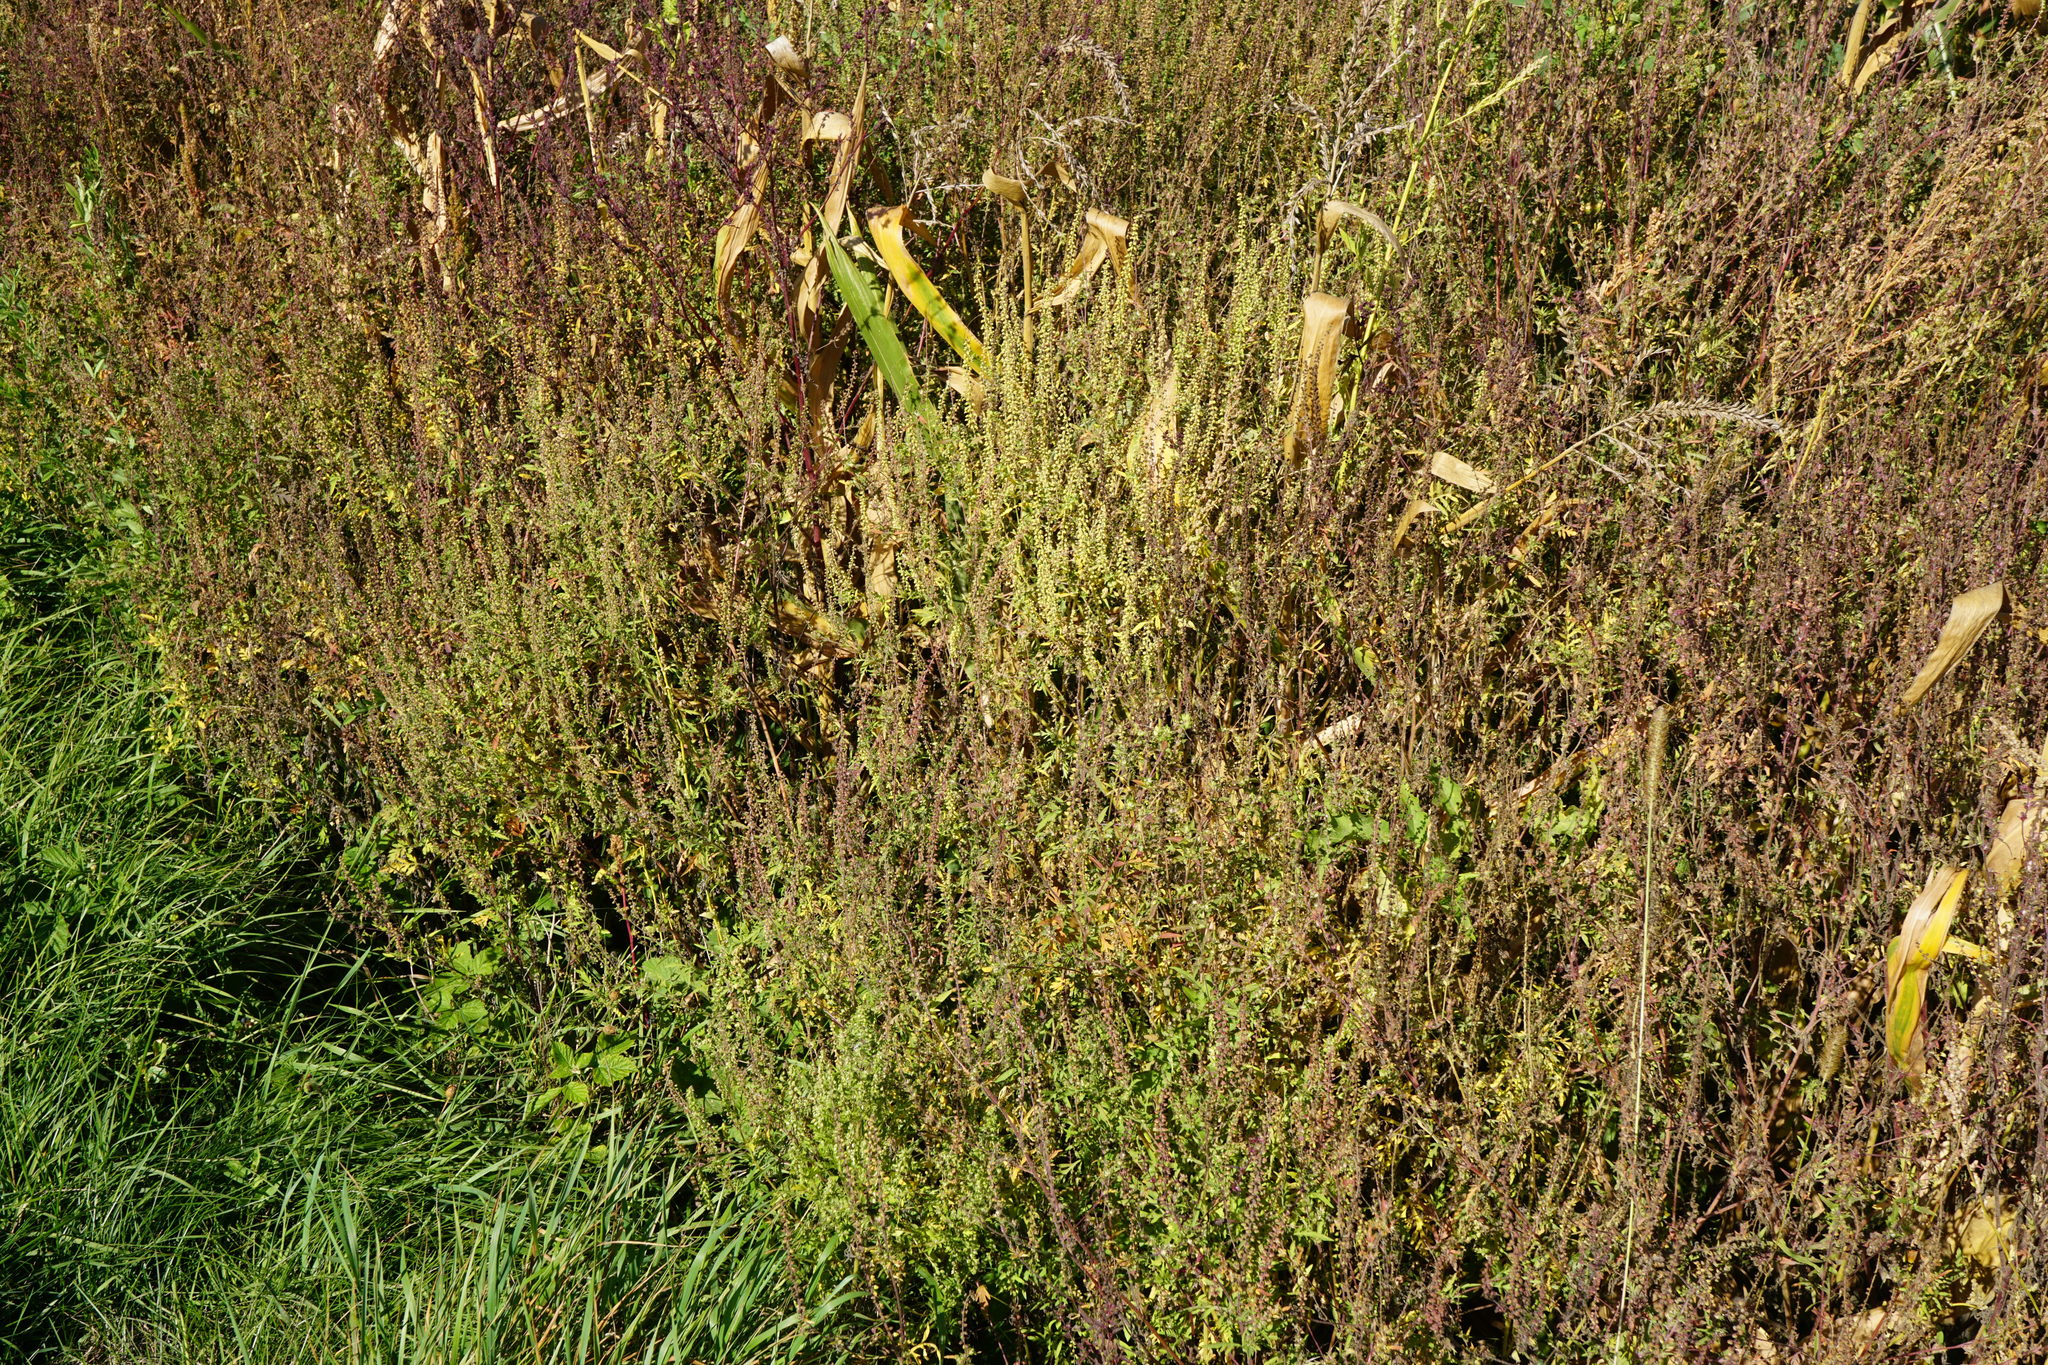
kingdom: Plantae
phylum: Tracheophyta
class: Magnoliopsida
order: Asterales
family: Asteraceae
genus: Ambrosia
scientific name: Ambrosia artemisiifolia
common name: Annual ragweed
